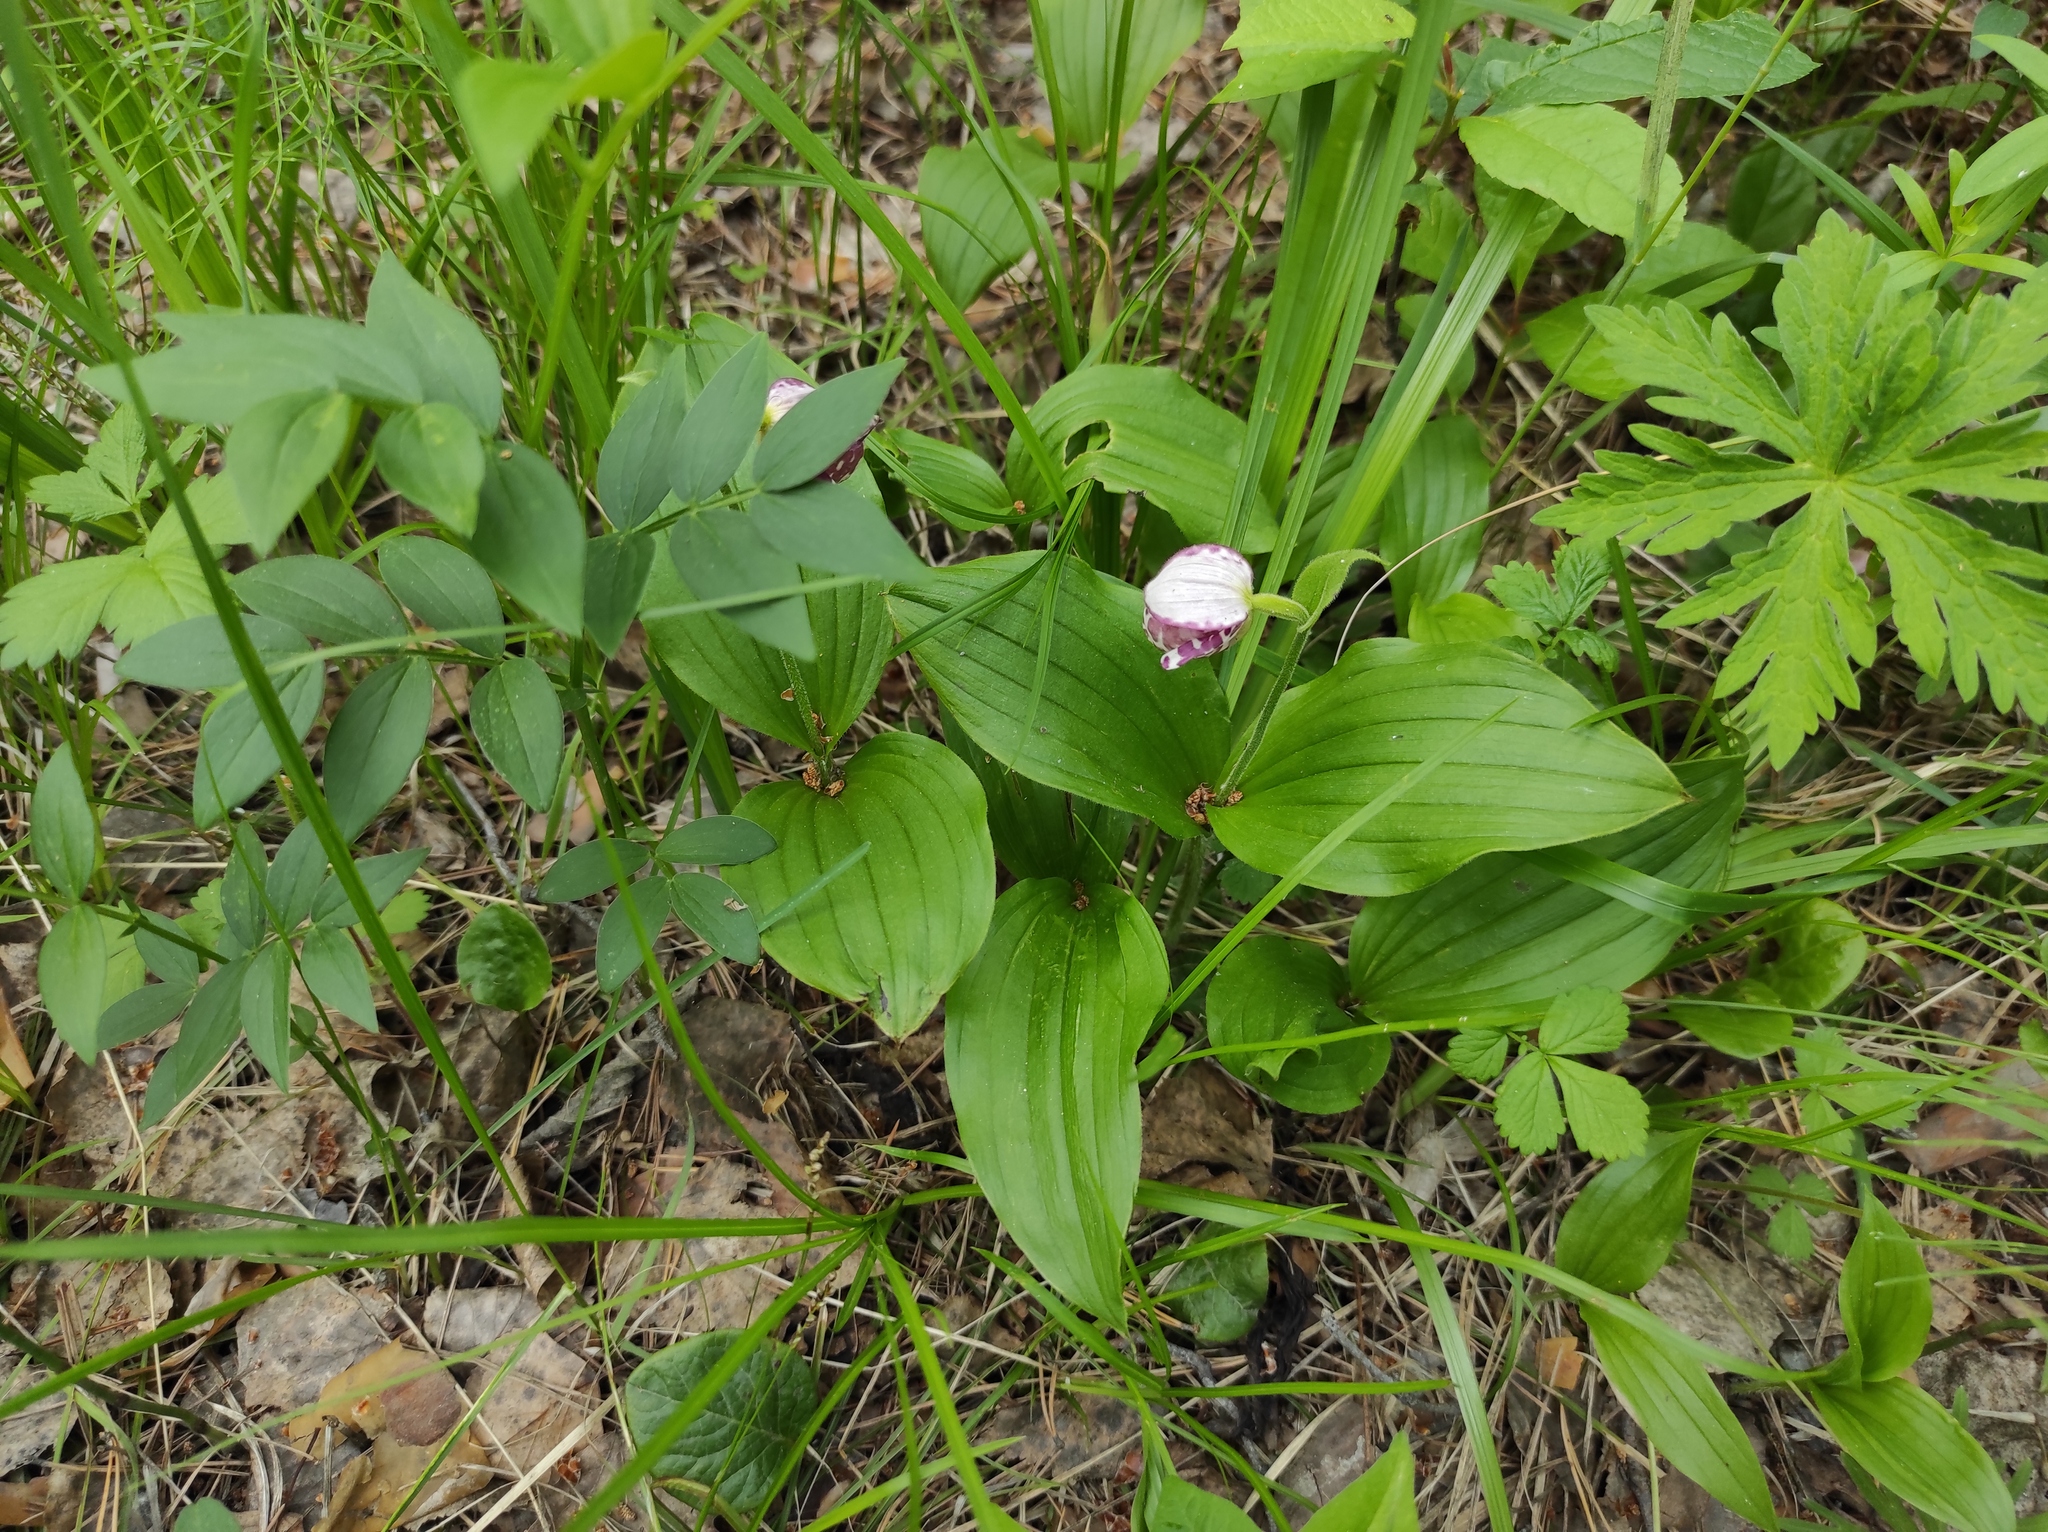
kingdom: Plantae
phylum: Tracheophyta
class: Liliopsida
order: Asparagales
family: Orchidaceae
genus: Cypripedium
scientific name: Cypripedium guttatum
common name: Pink lady slipper
